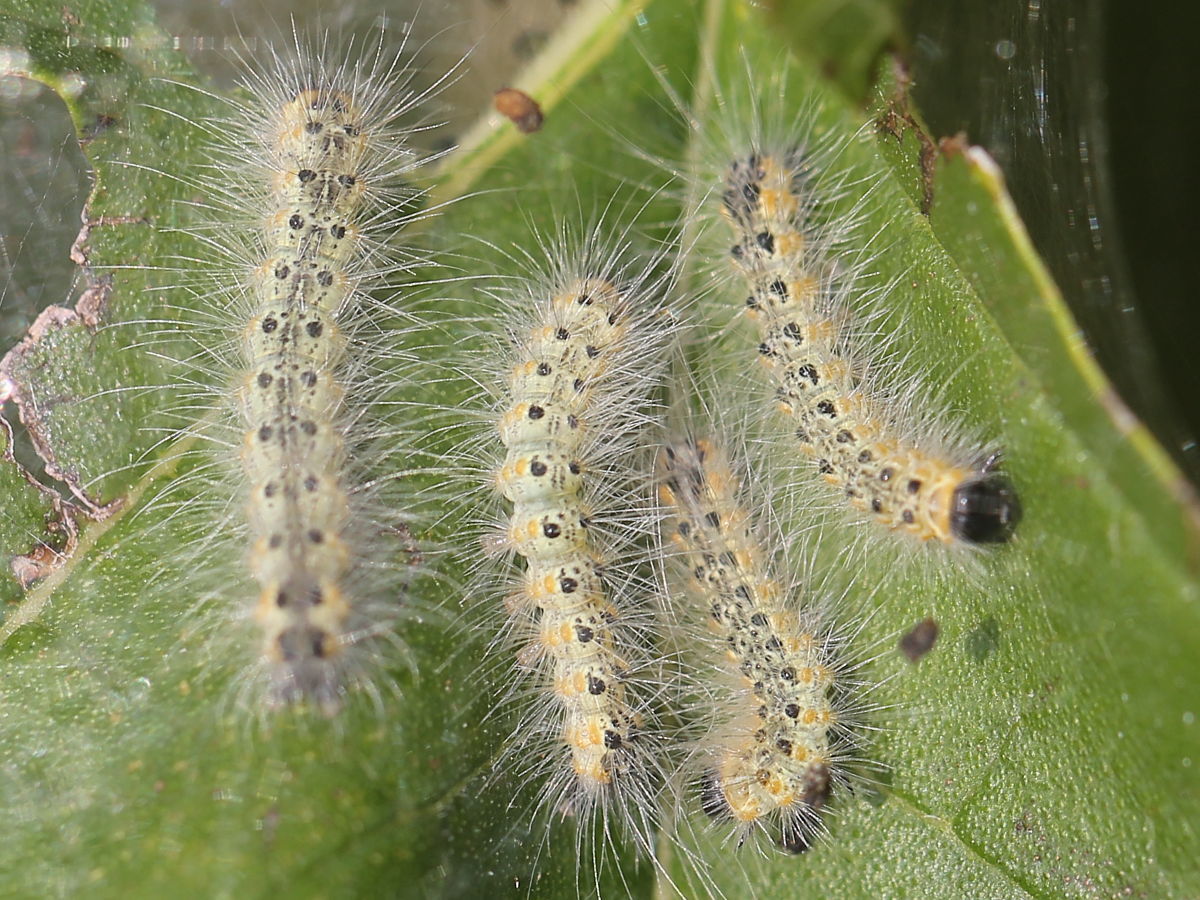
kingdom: Animalia
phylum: Arthropoda
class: Insecta
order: Lepidoptera
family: Erebidae
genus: Hyphantria
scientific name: Hyphantria cunea
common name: American white moth
